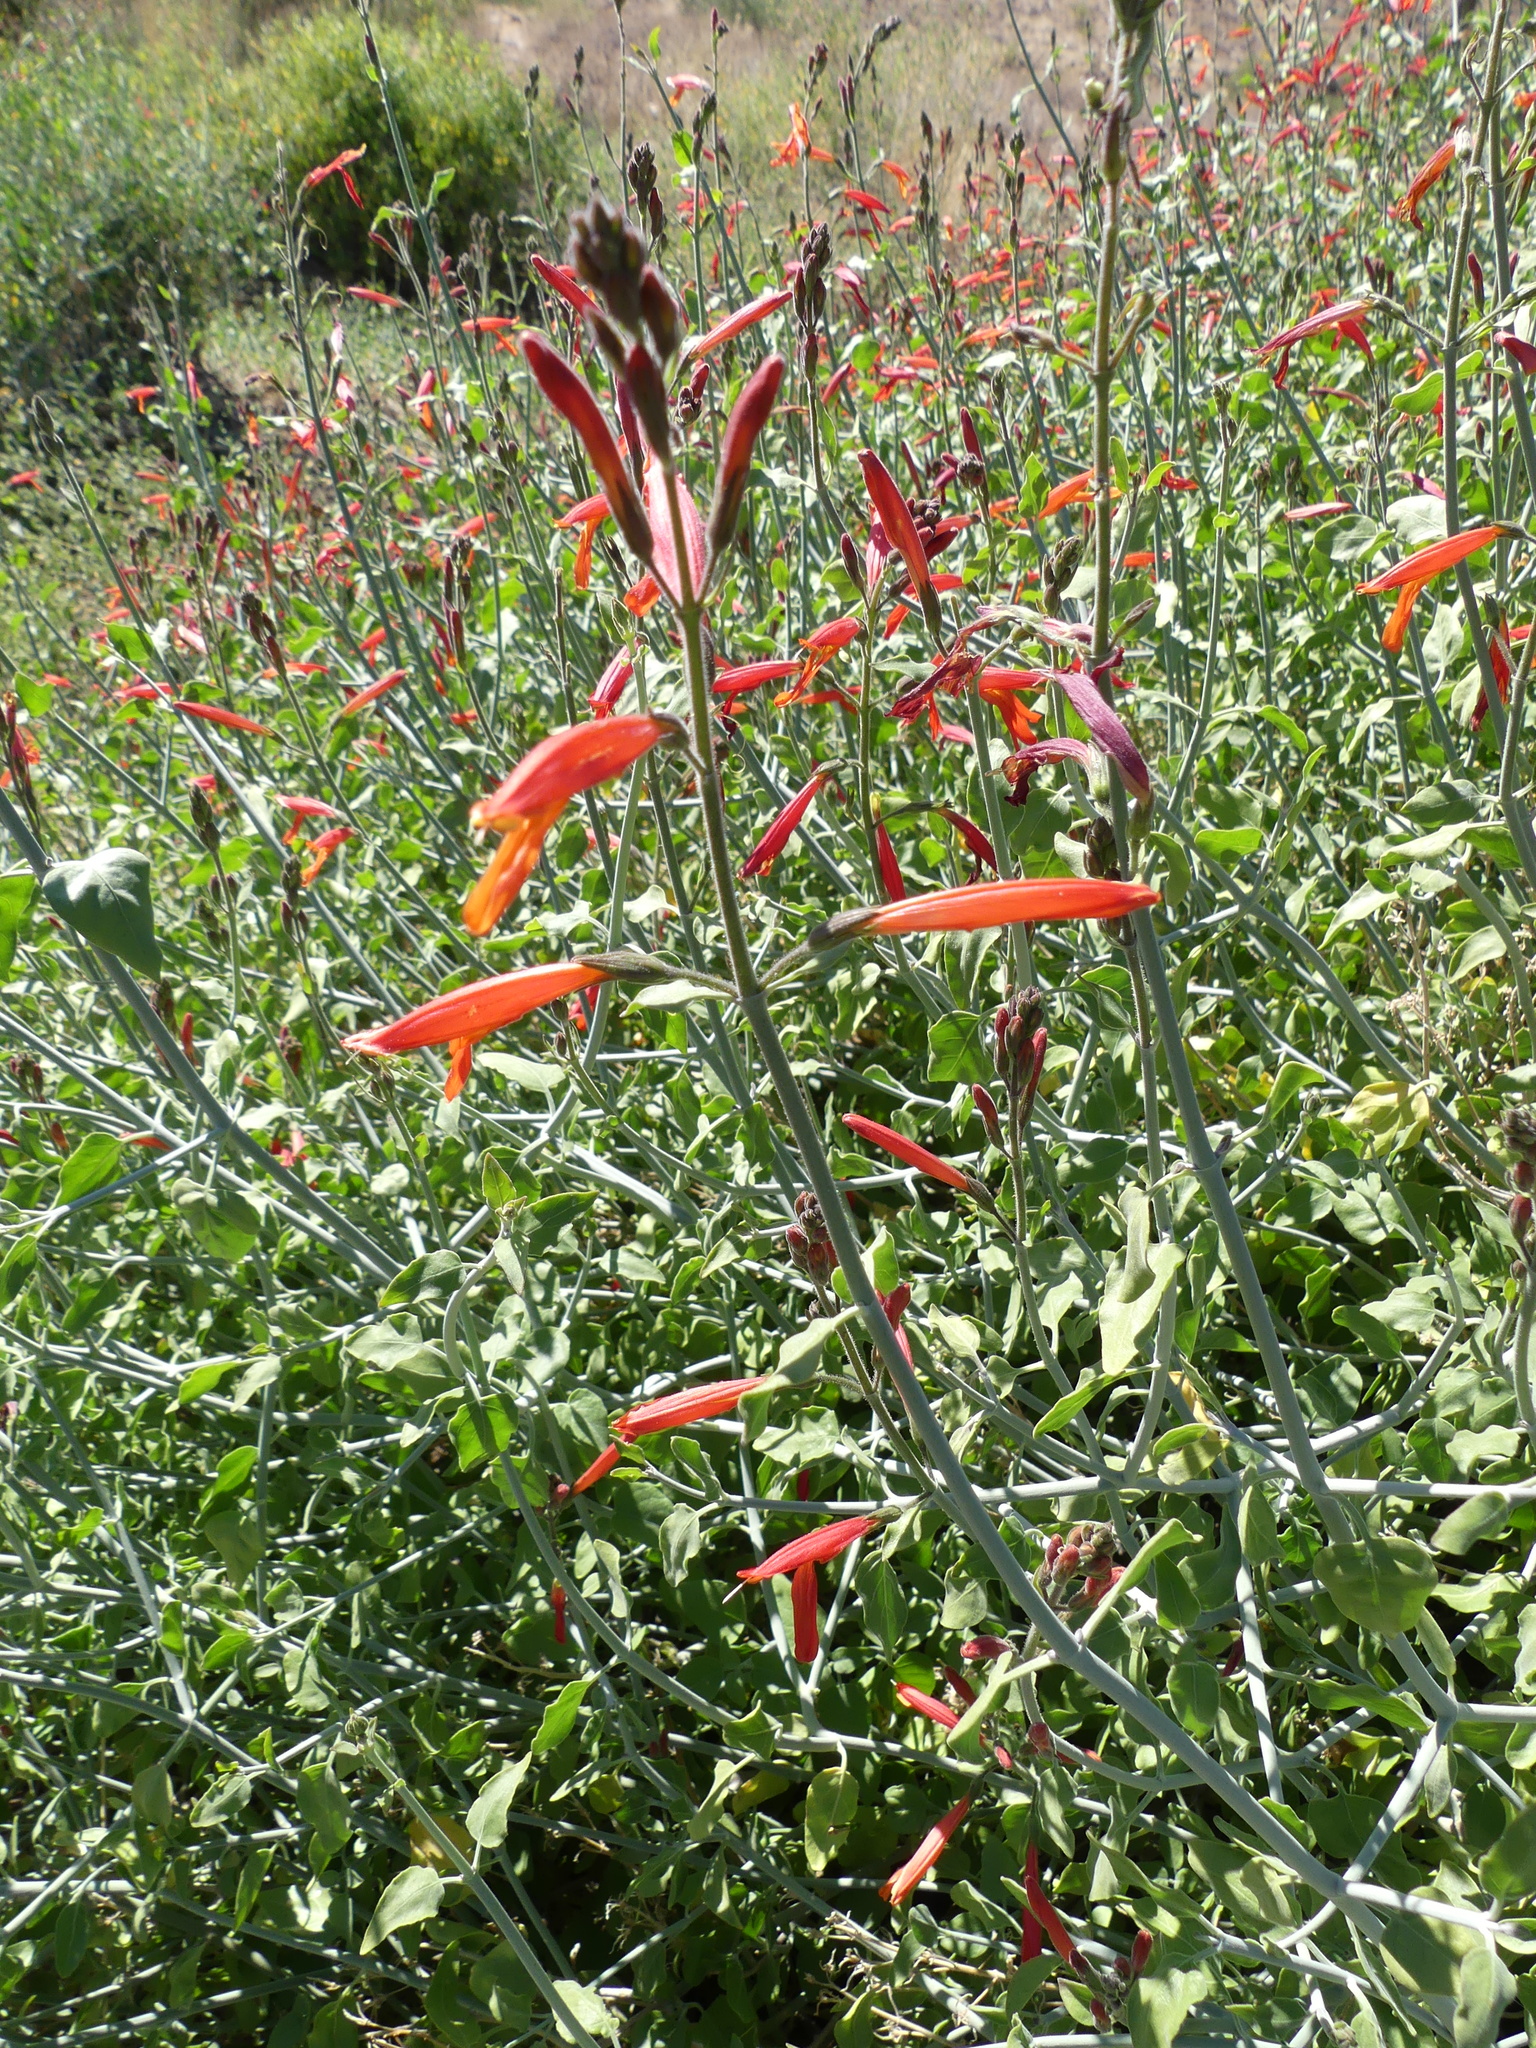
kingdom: Plantae
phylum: Tracheophyta
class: Magnoliopsida
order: Lamiales
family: Acanthaceae
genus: Justicia
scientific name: Justicia californica
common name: Chuparosa-honeysuckle
